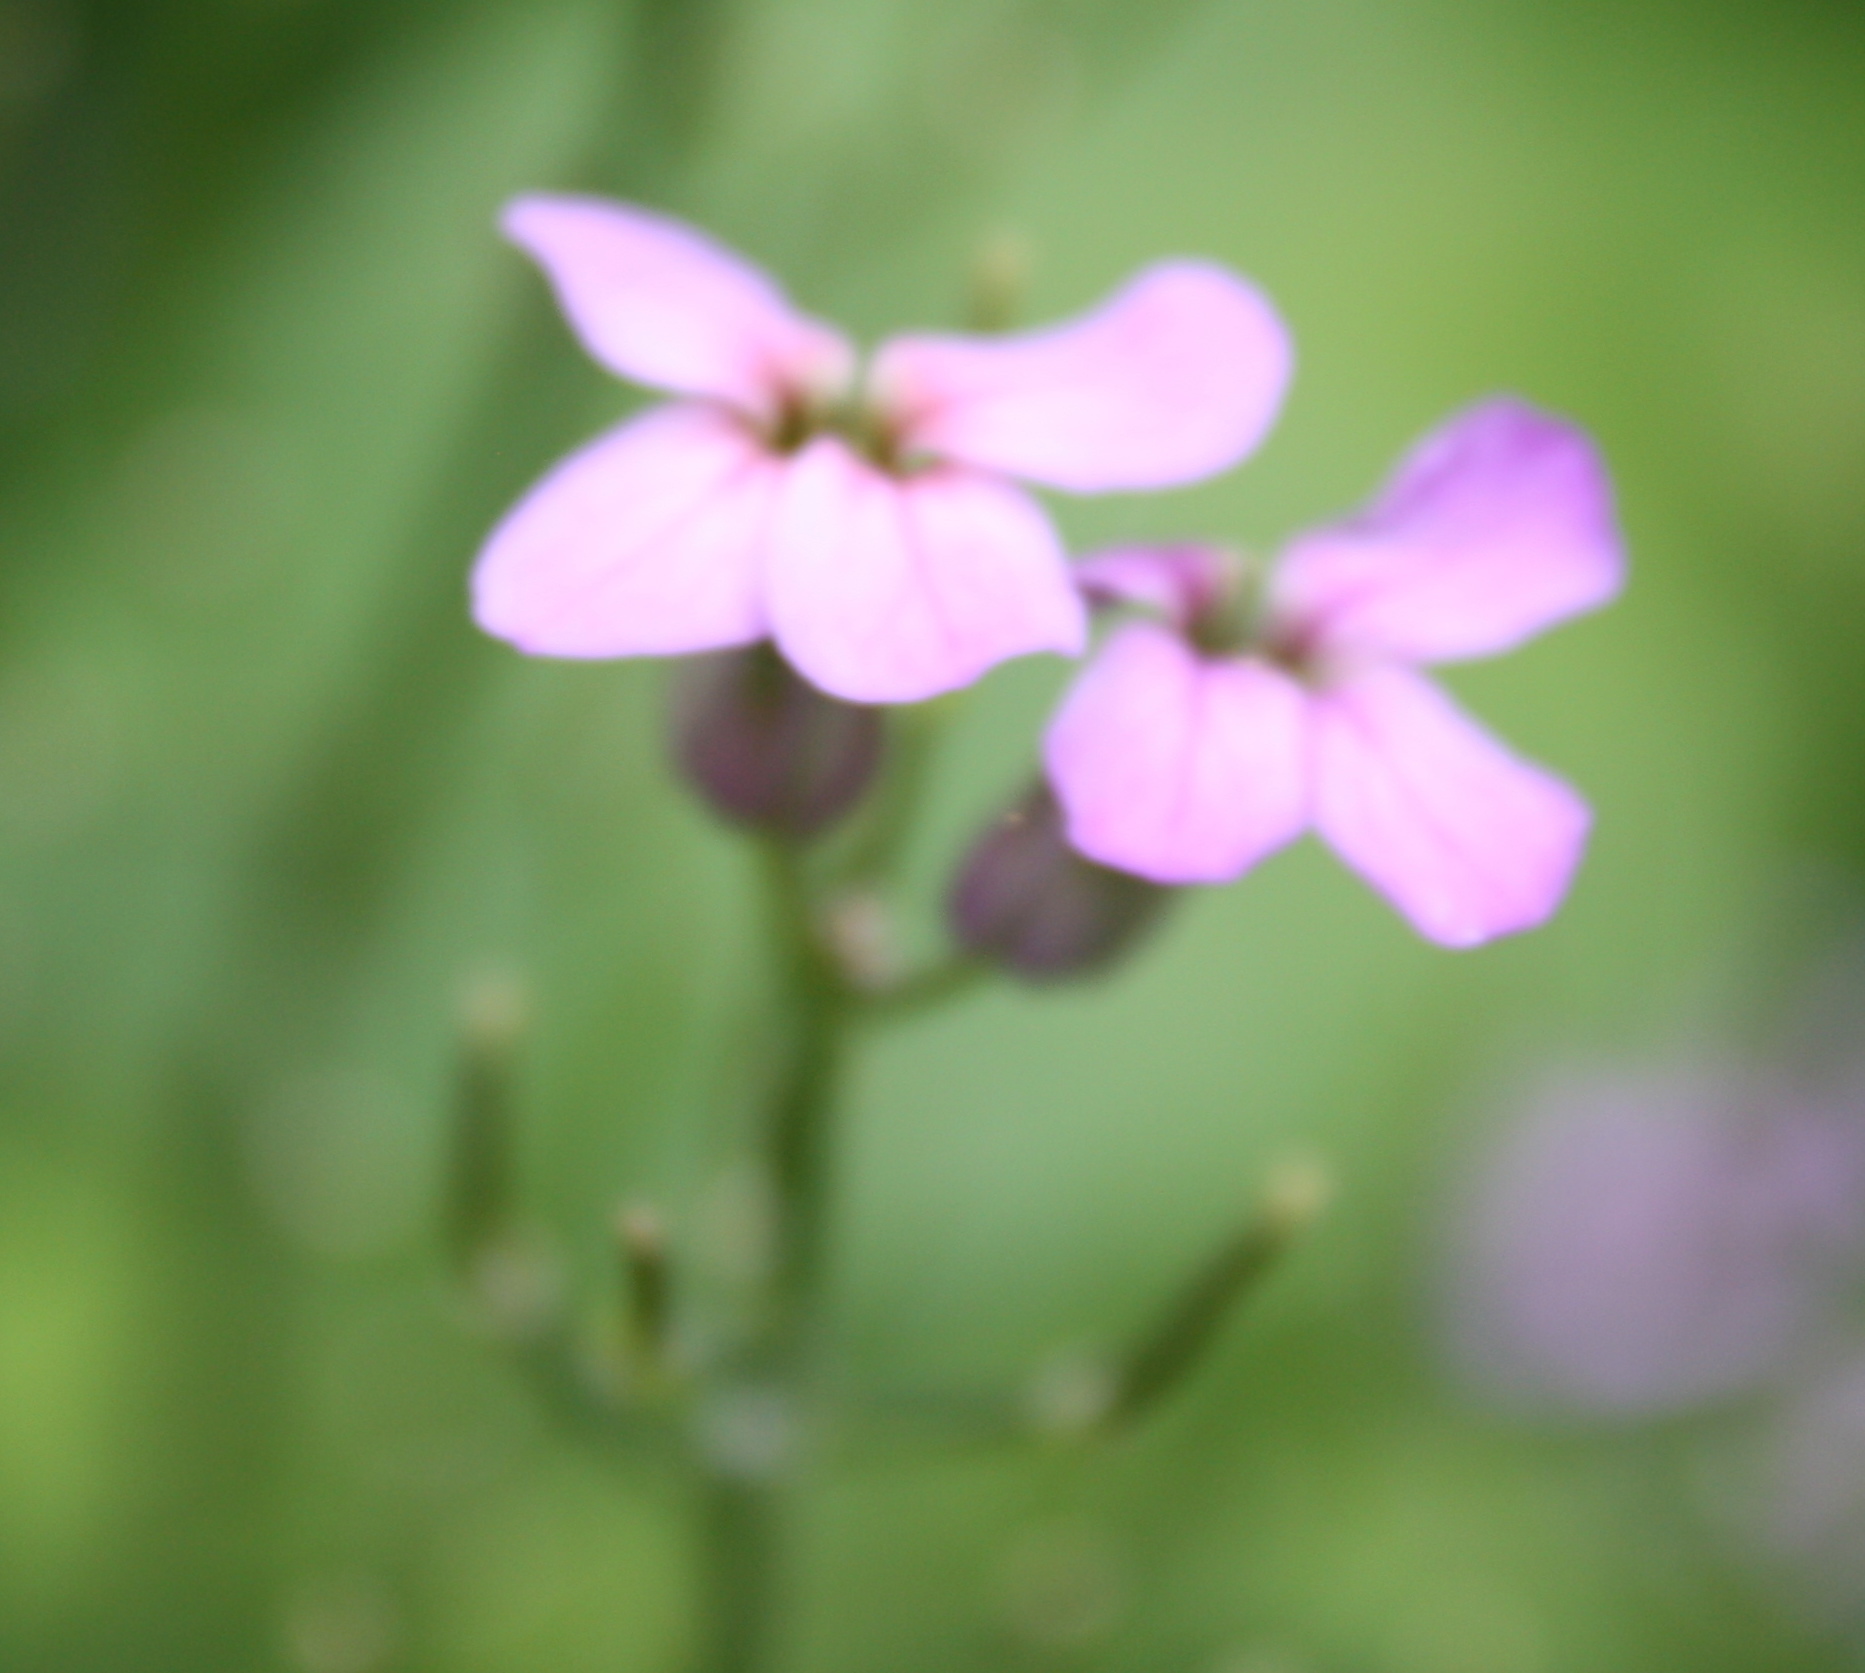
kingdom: Plantae
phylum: Tracheophyta
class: Magnoliopsida
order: Brassicales
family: Brassicaceae
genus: Hesperis
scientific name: Hesperis matronalis
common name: Dame's-violet
